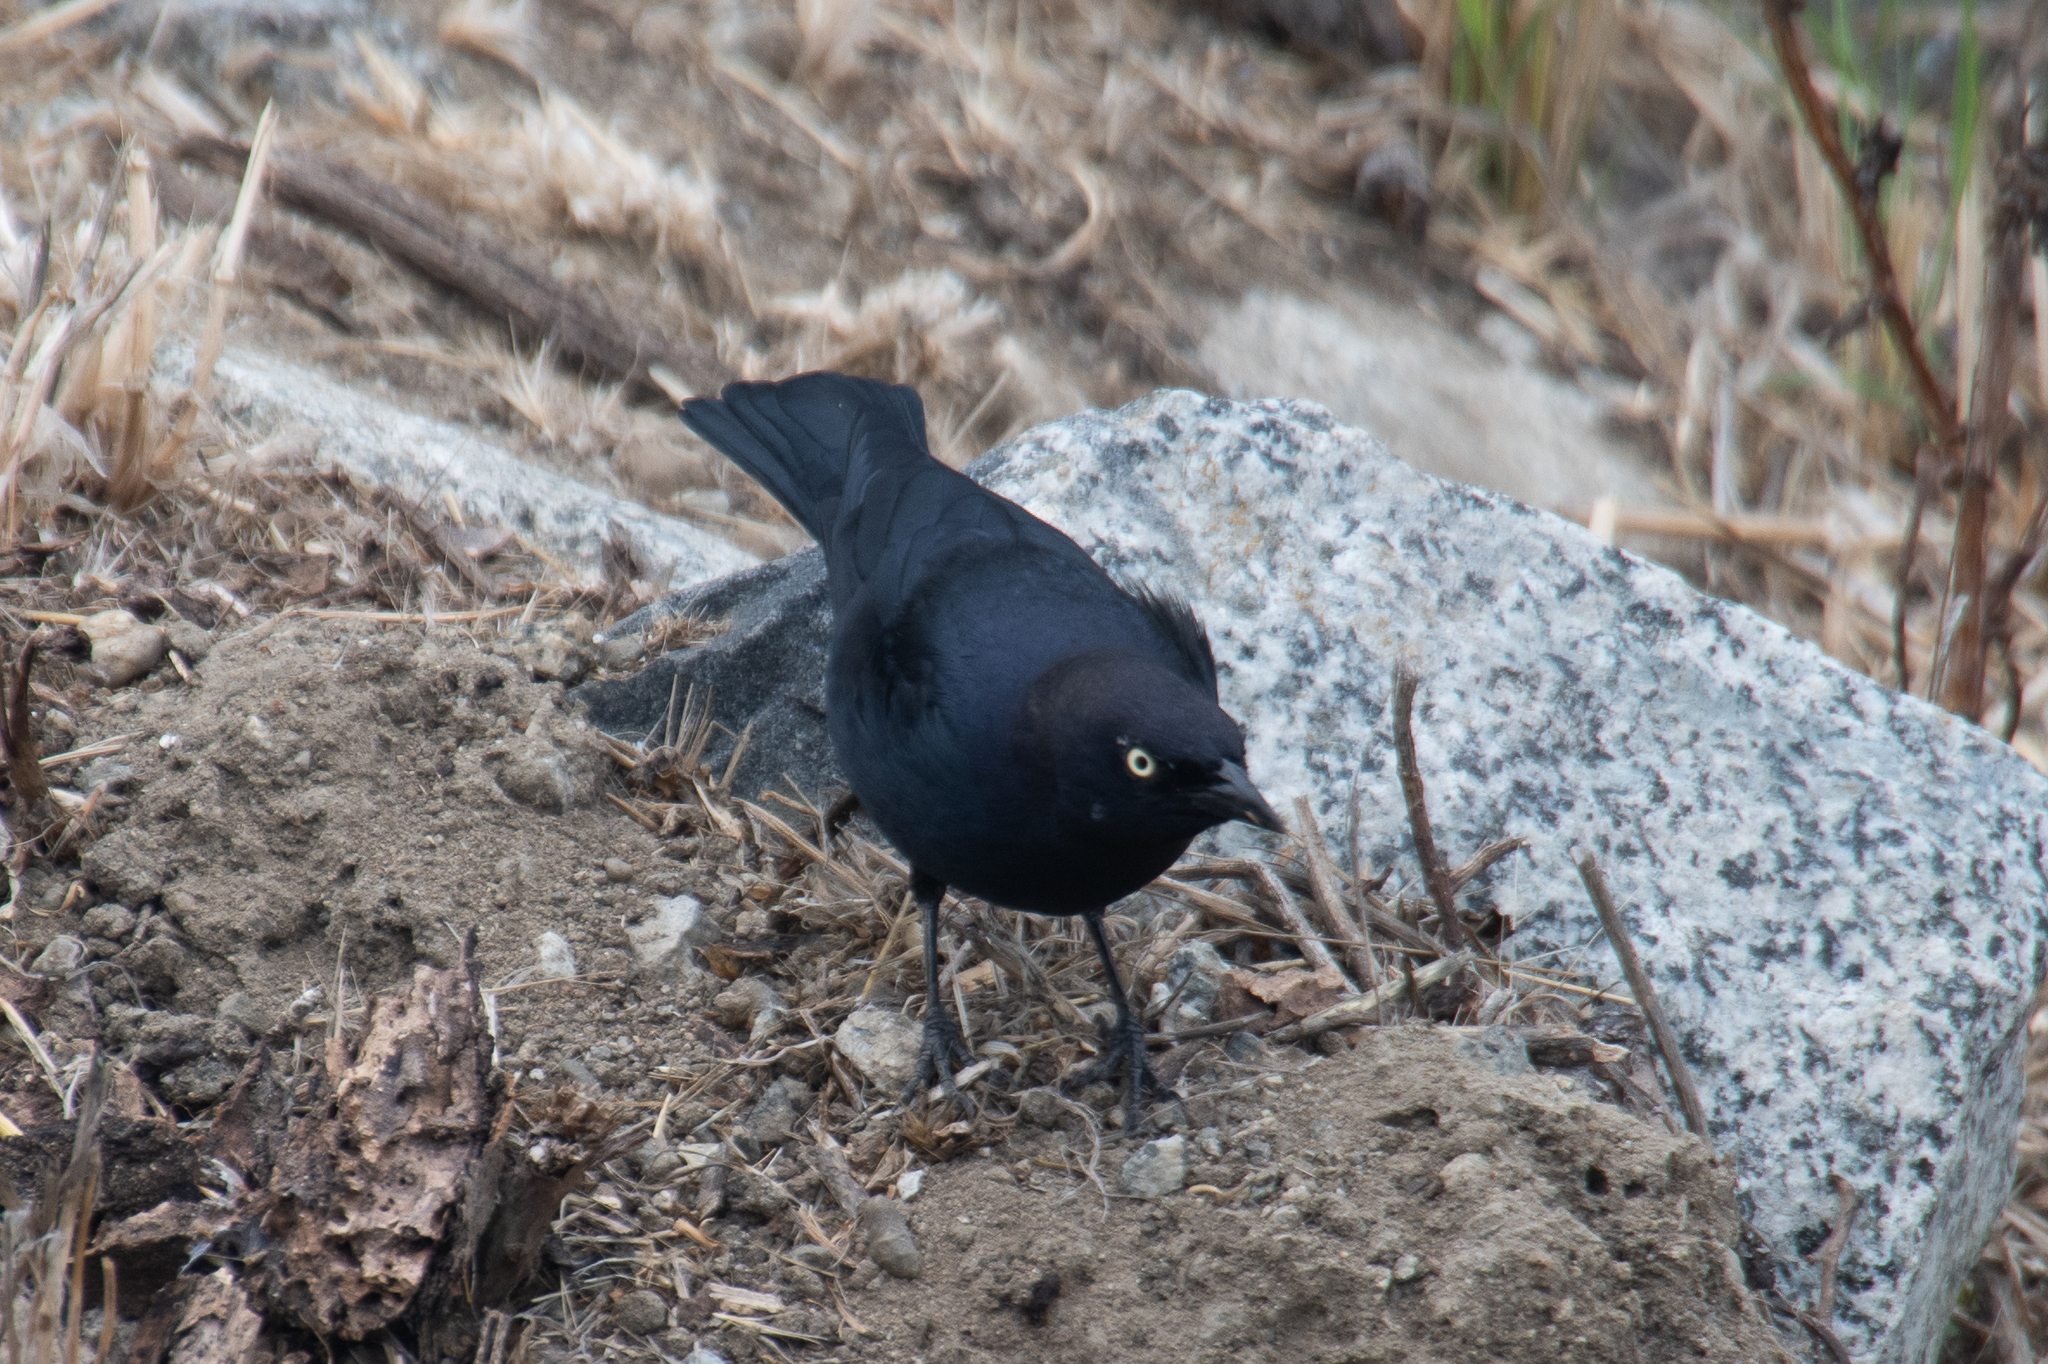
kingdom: Animalia
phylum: Chordata
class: Aves
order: Passeriformes
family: Icteridae
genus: Euphagus
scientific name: Euphagus cyanocephalus
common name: Brewer's blackbird
